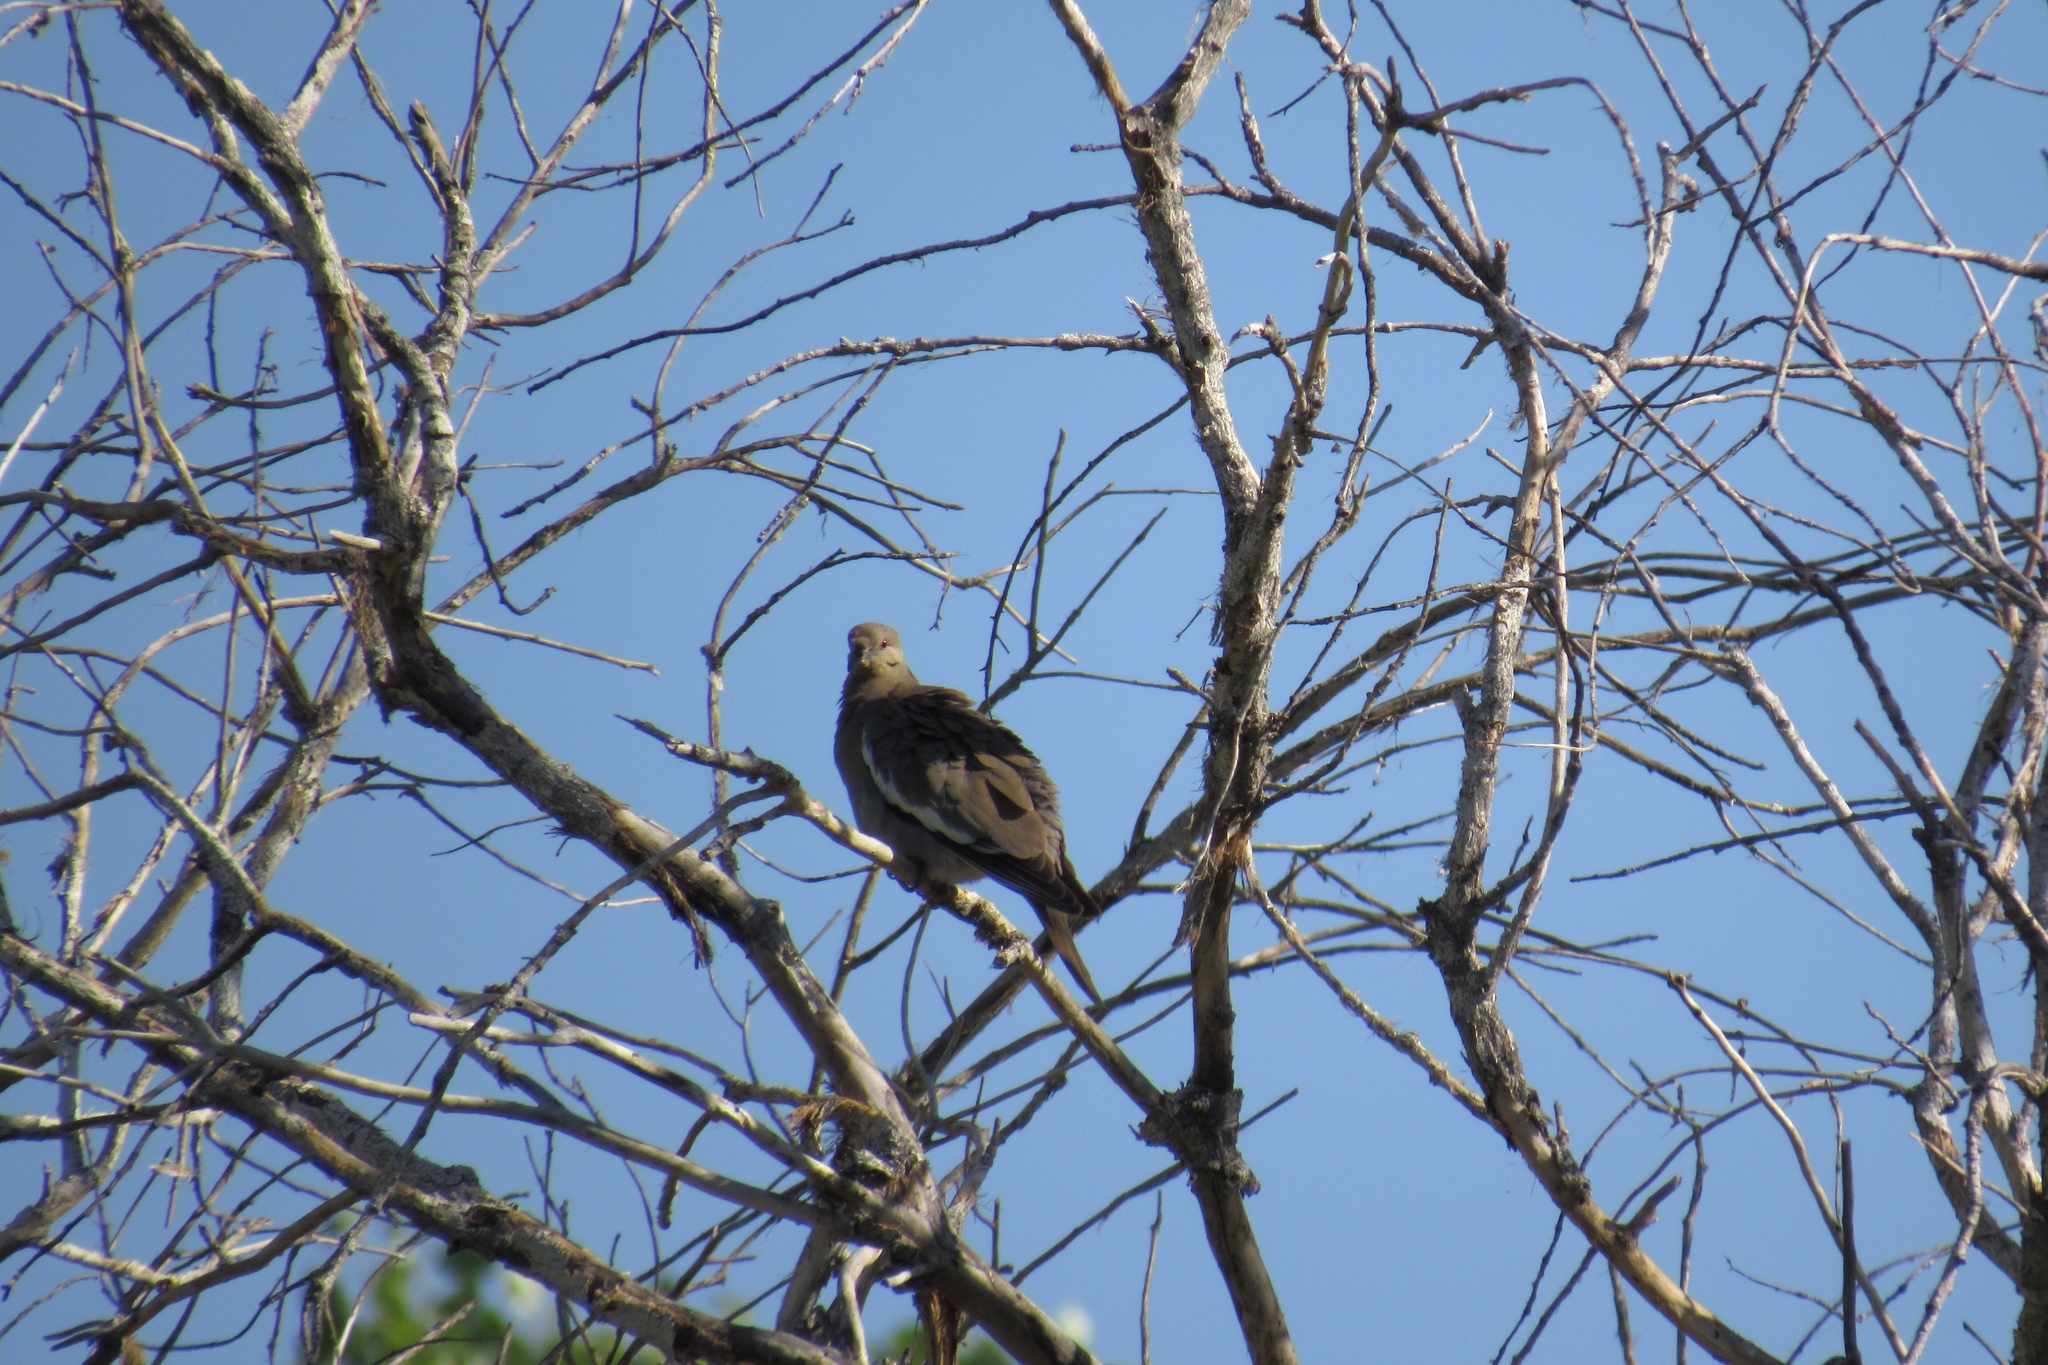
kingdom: Animalia
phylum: Chordata
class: Aves
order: Columbiformes
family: Columbidae
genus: Zenaida
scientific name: Zenaida asiatica
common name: White-winged dove
